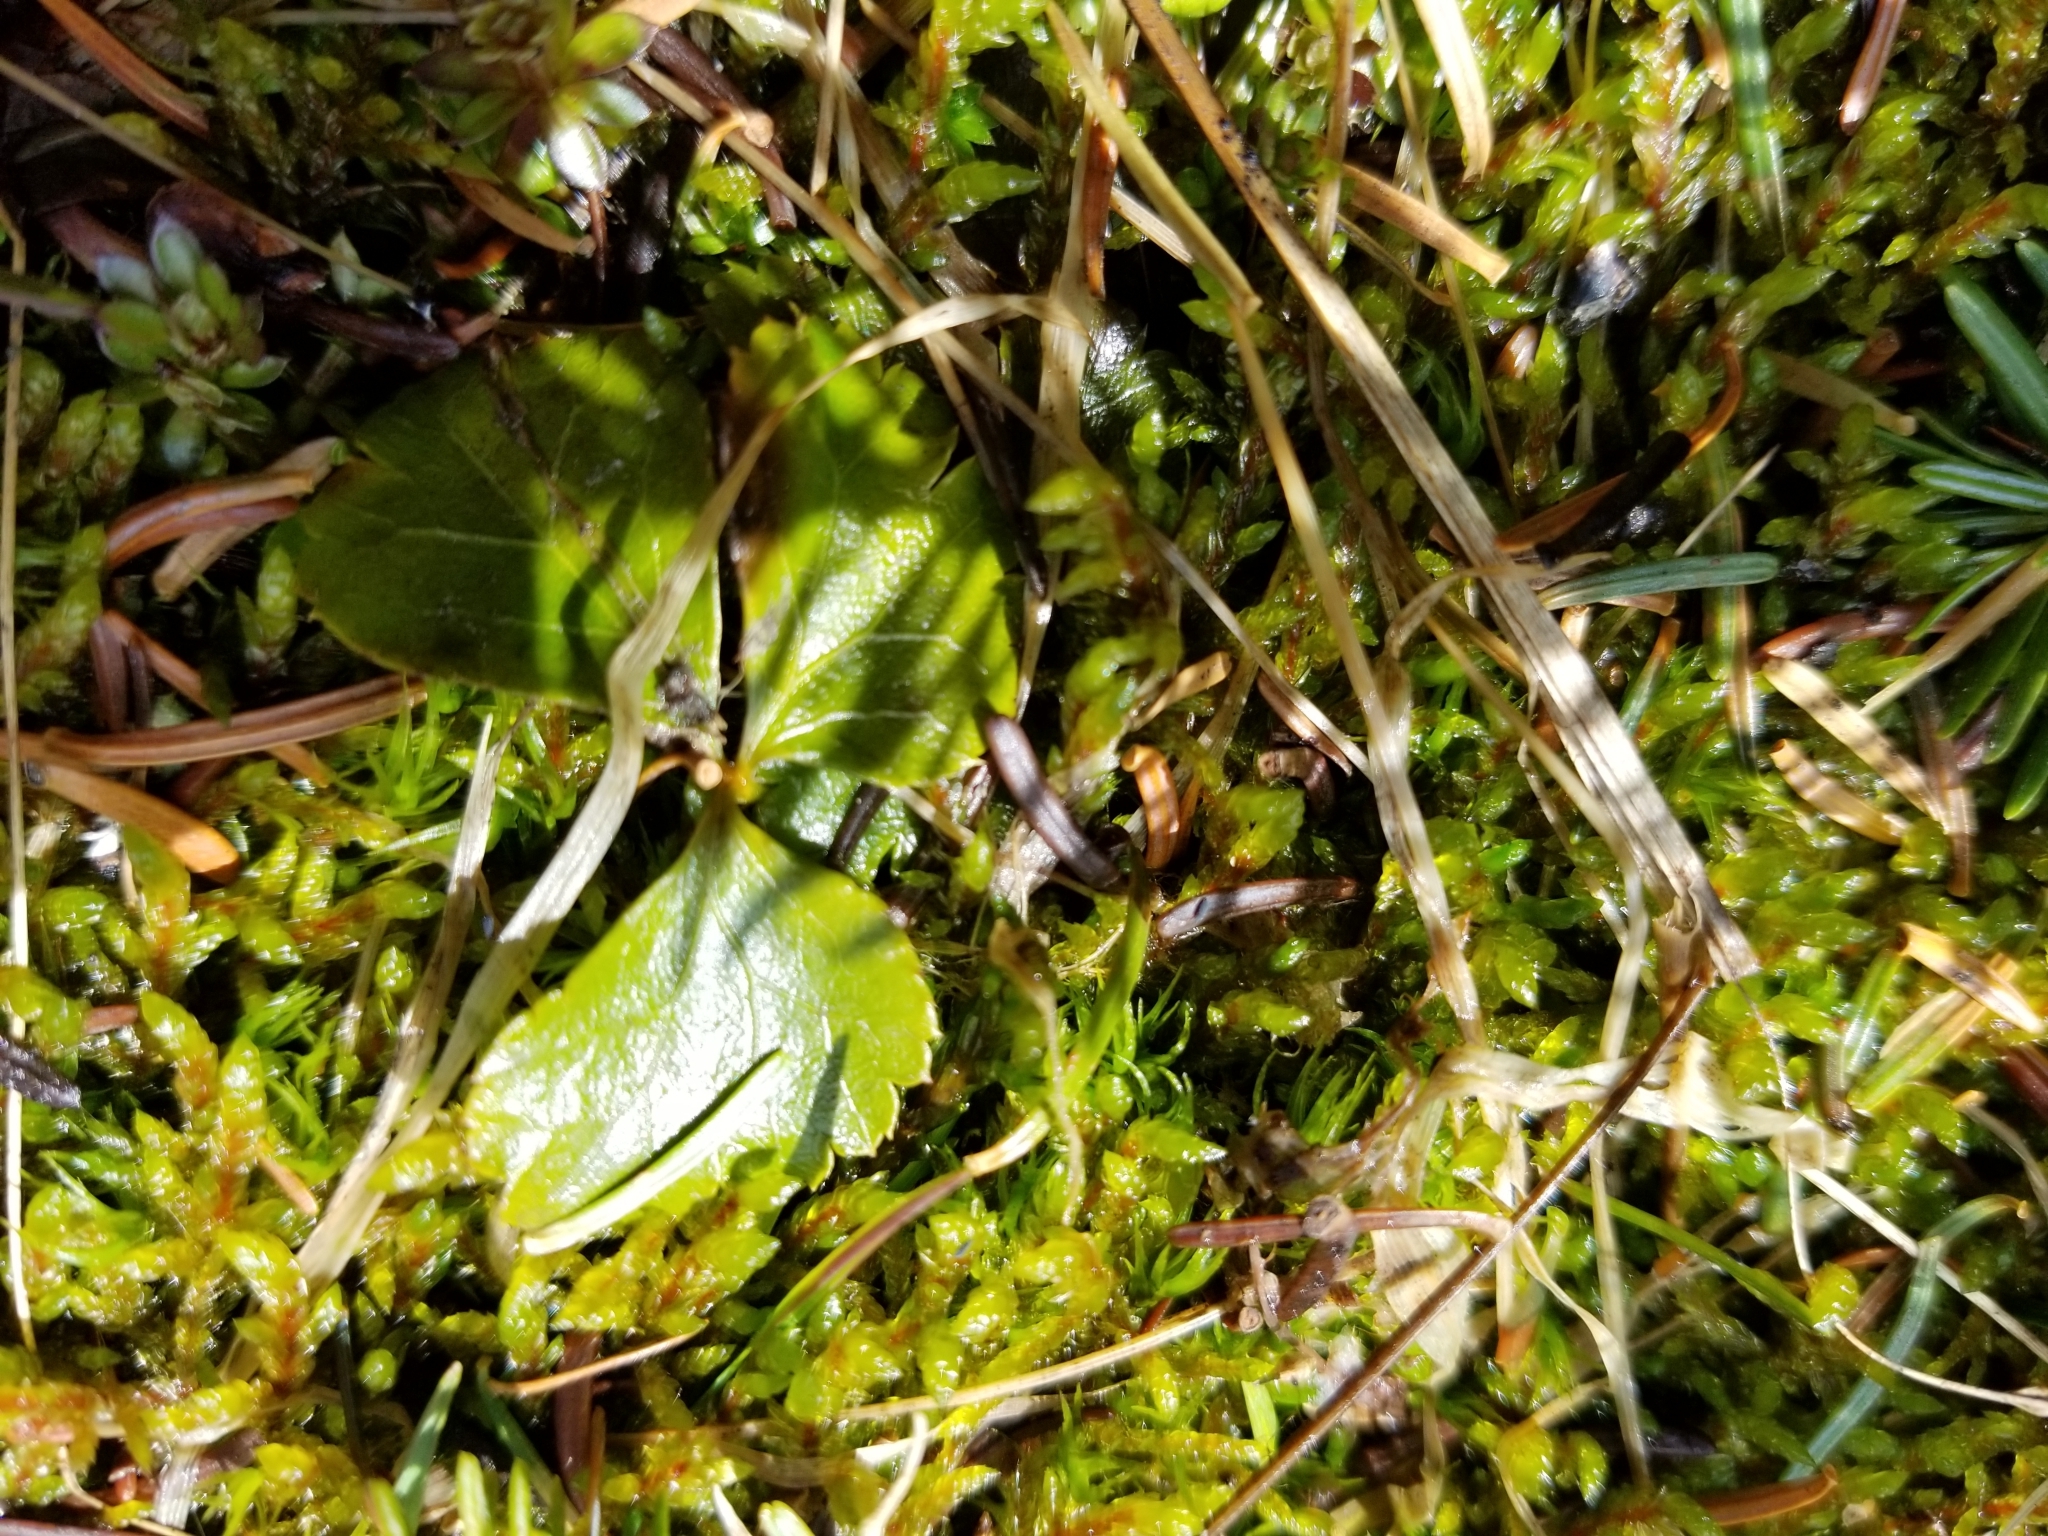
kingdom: Plantae
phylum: Tracheophyta
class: Magnoliopsida
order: Ranunculales
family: Ranunculaceae
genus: Coptis
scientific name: Coptis trifolia
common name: Canker-root
